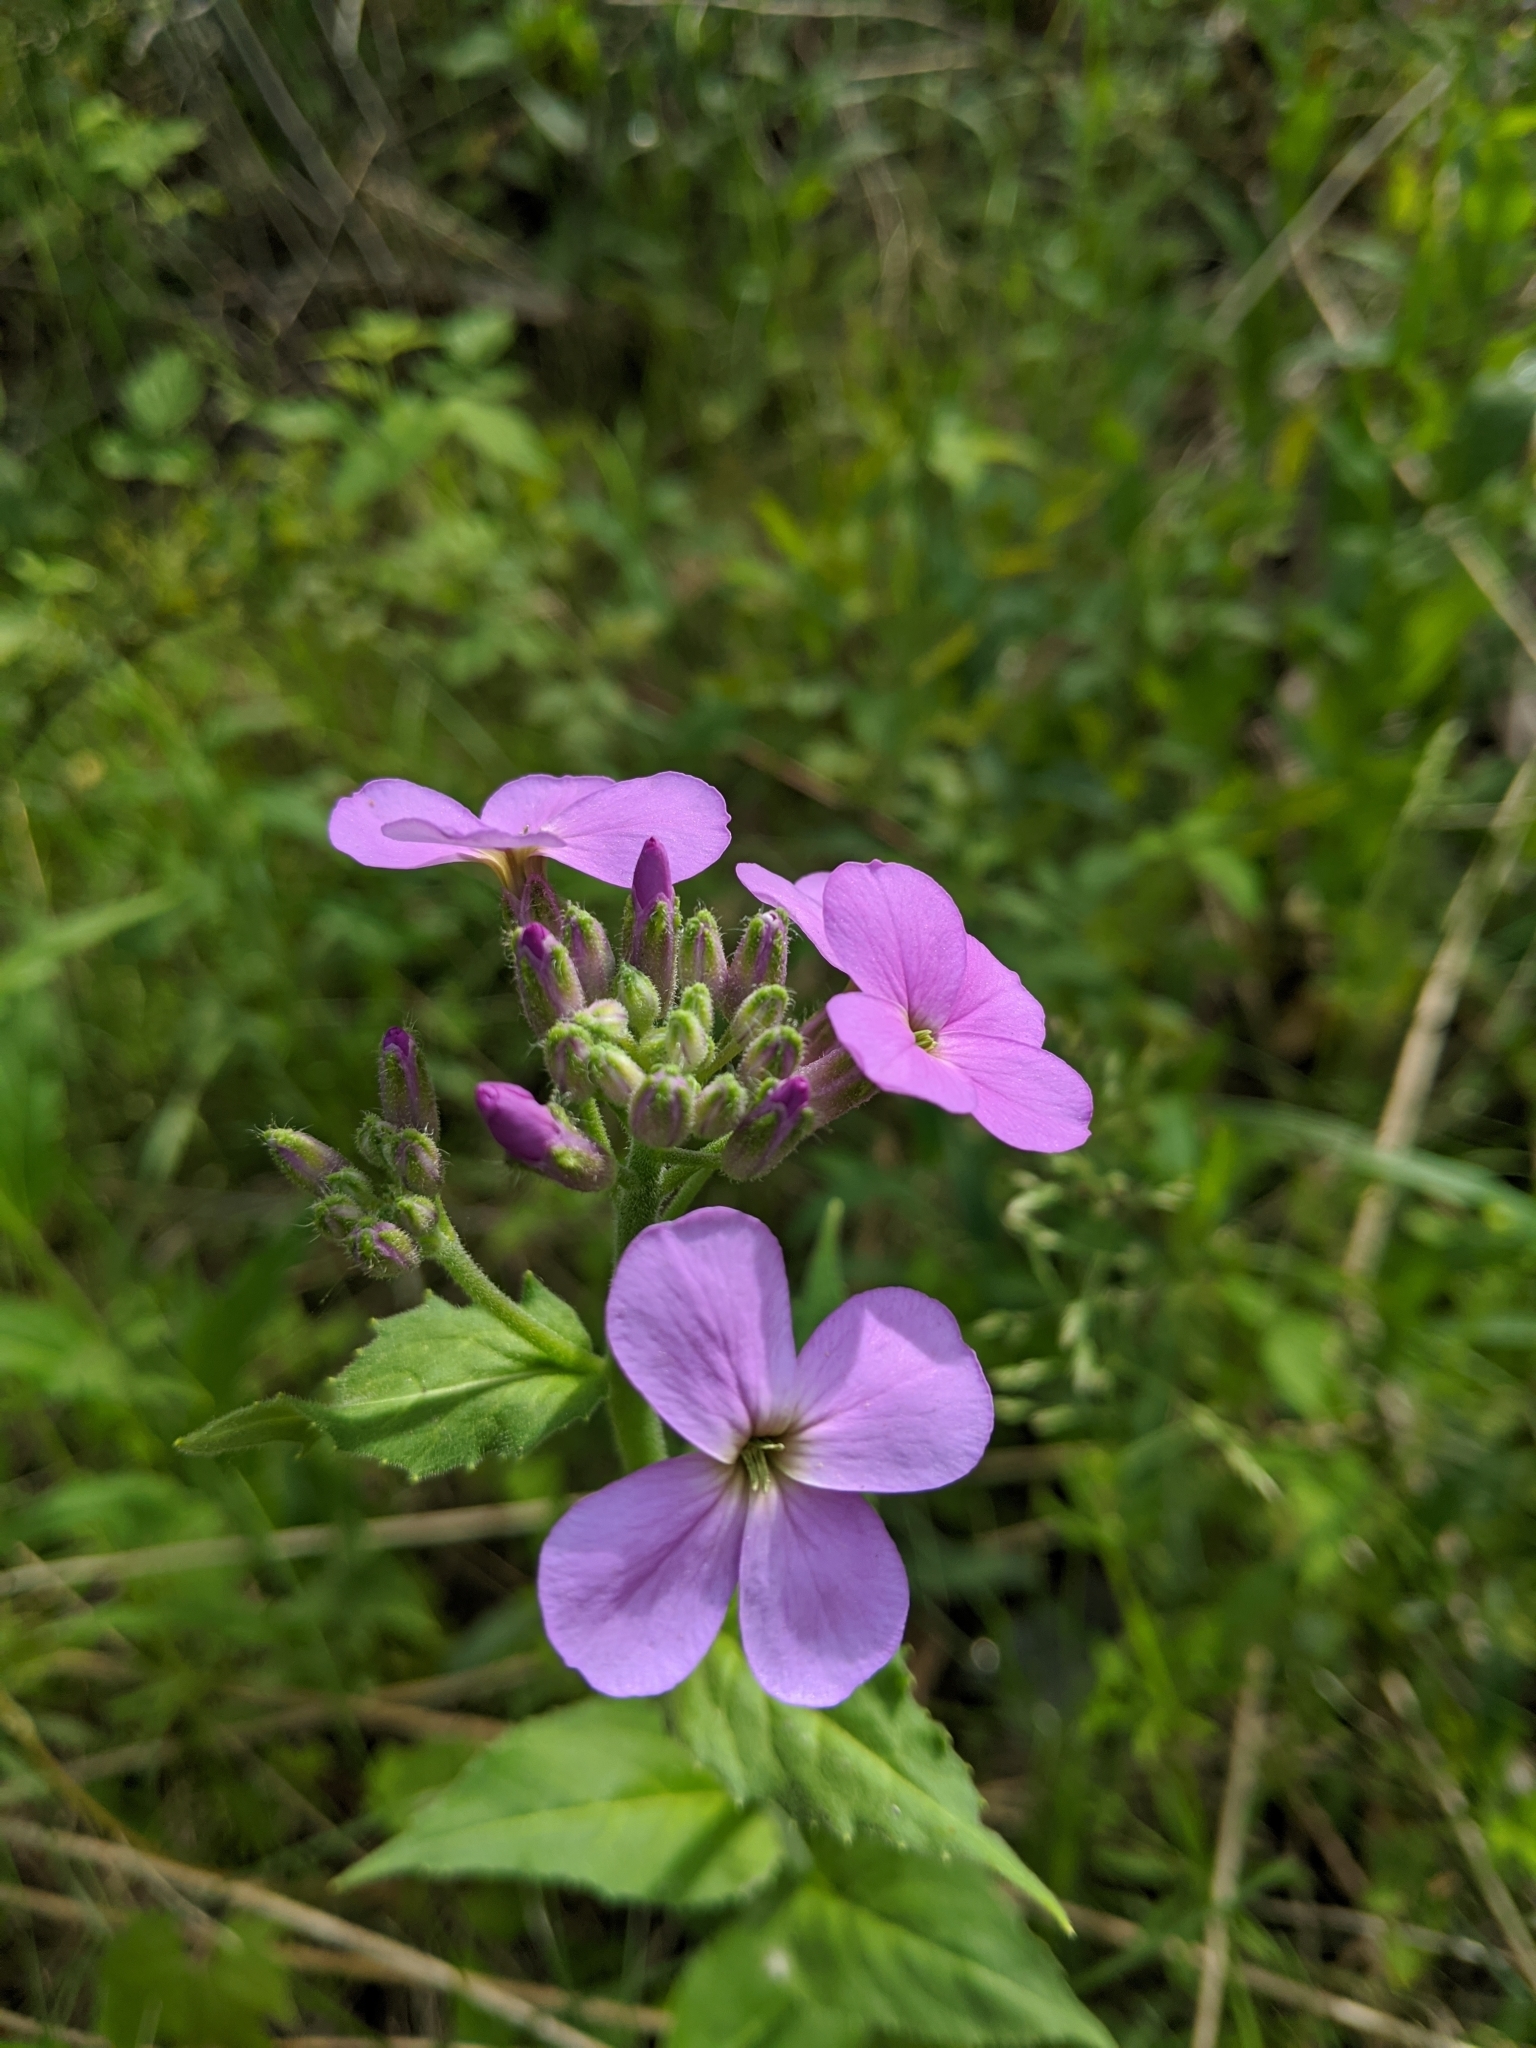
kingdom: Plantae
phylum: Tracheophyta
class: Magnoliopsida
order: Brassicales
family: Brassicaceae
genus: Hesperis
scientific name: Hesperis matronalis
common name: Dame's-violet
